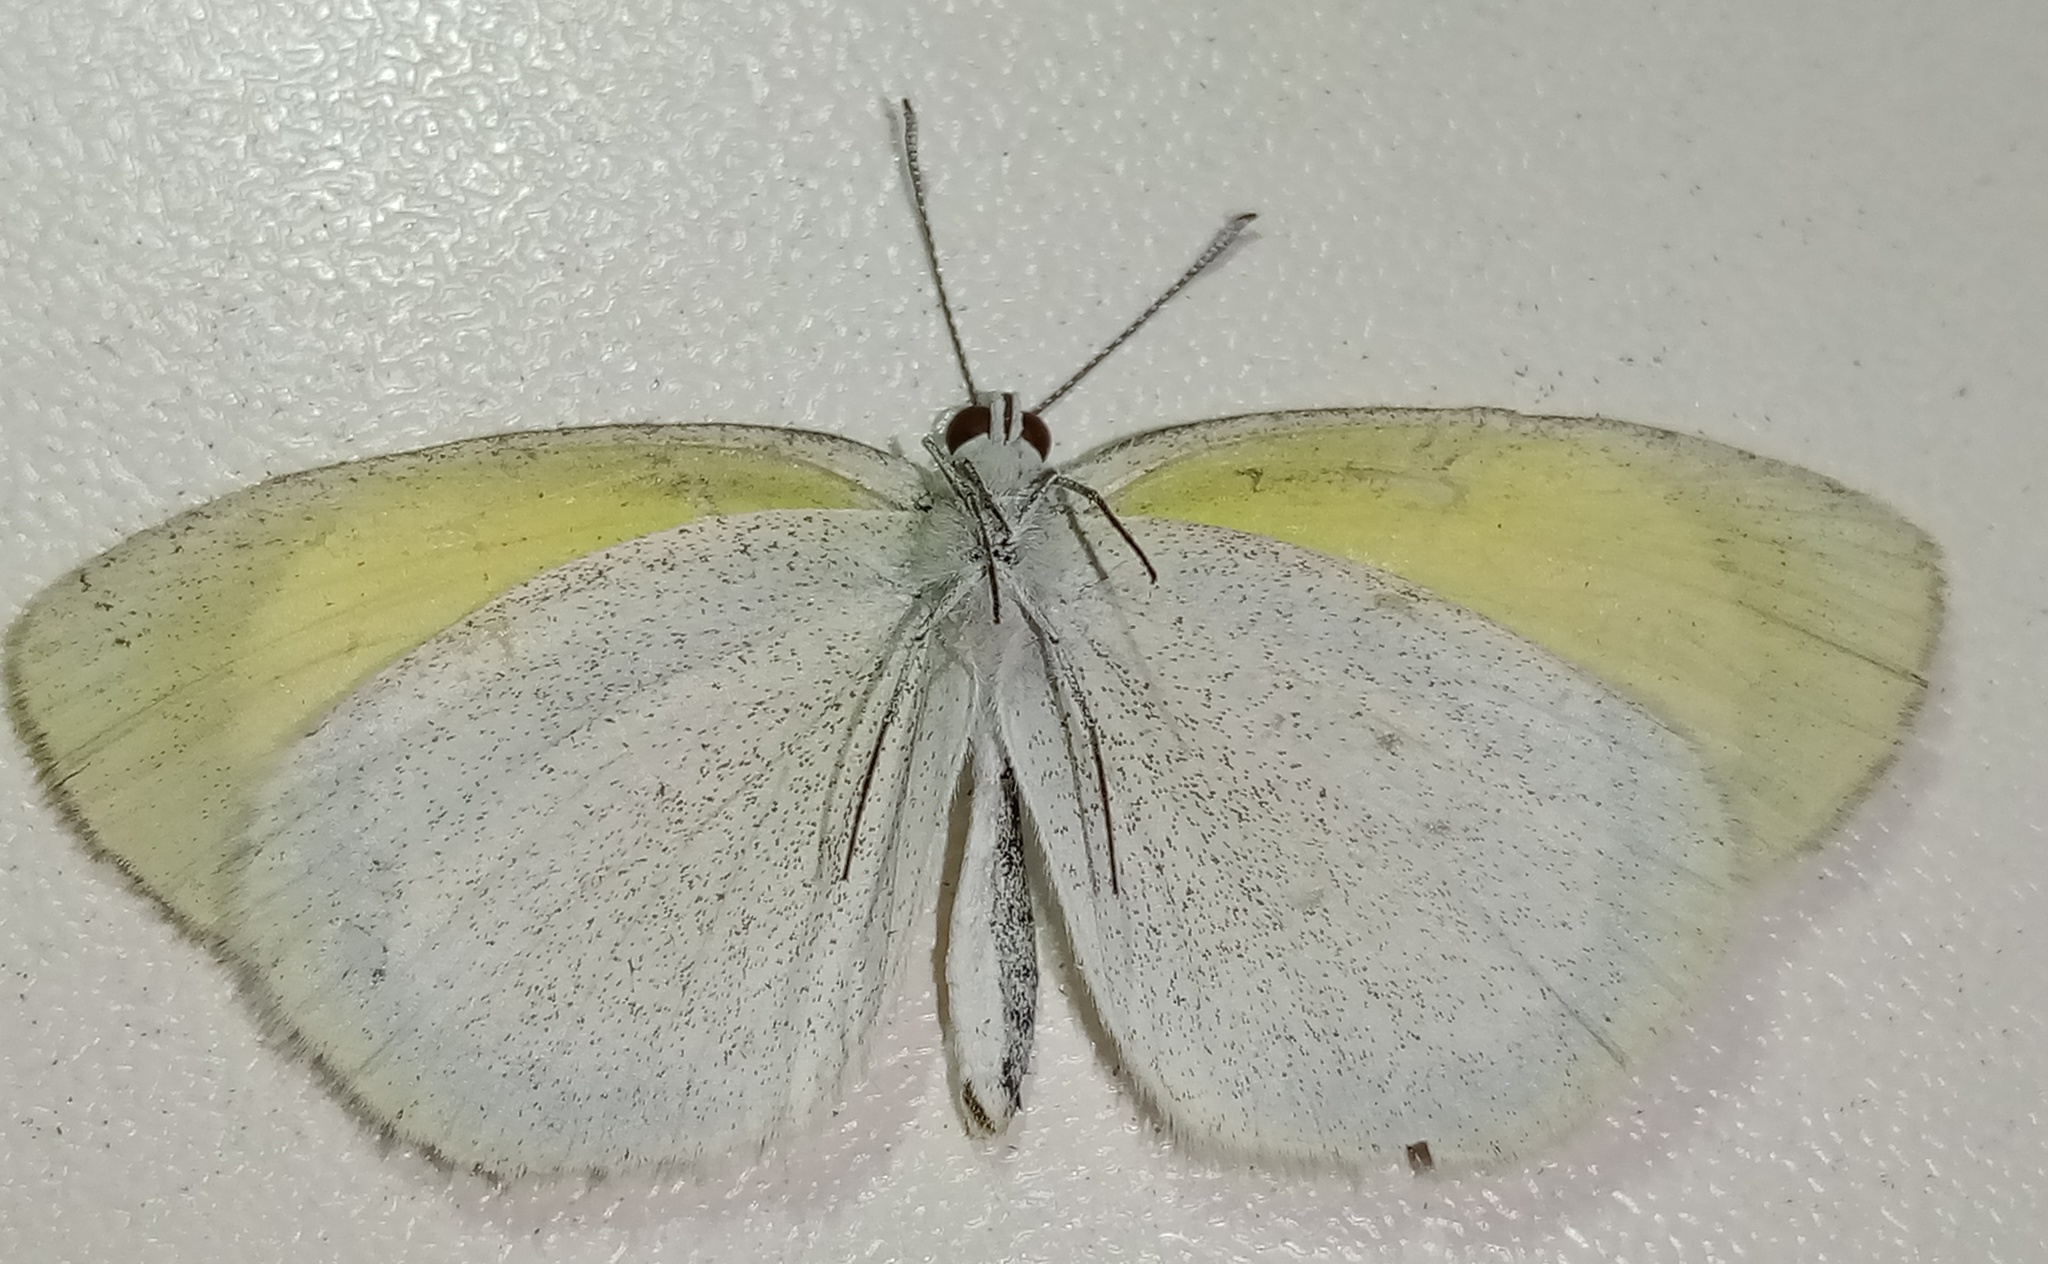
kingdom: Animalia
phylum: Arthropoda
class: Insecta
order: Lepidoptera
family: Pieridae
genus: Eurema
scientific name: Eurema daira
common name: Barred sulphur
